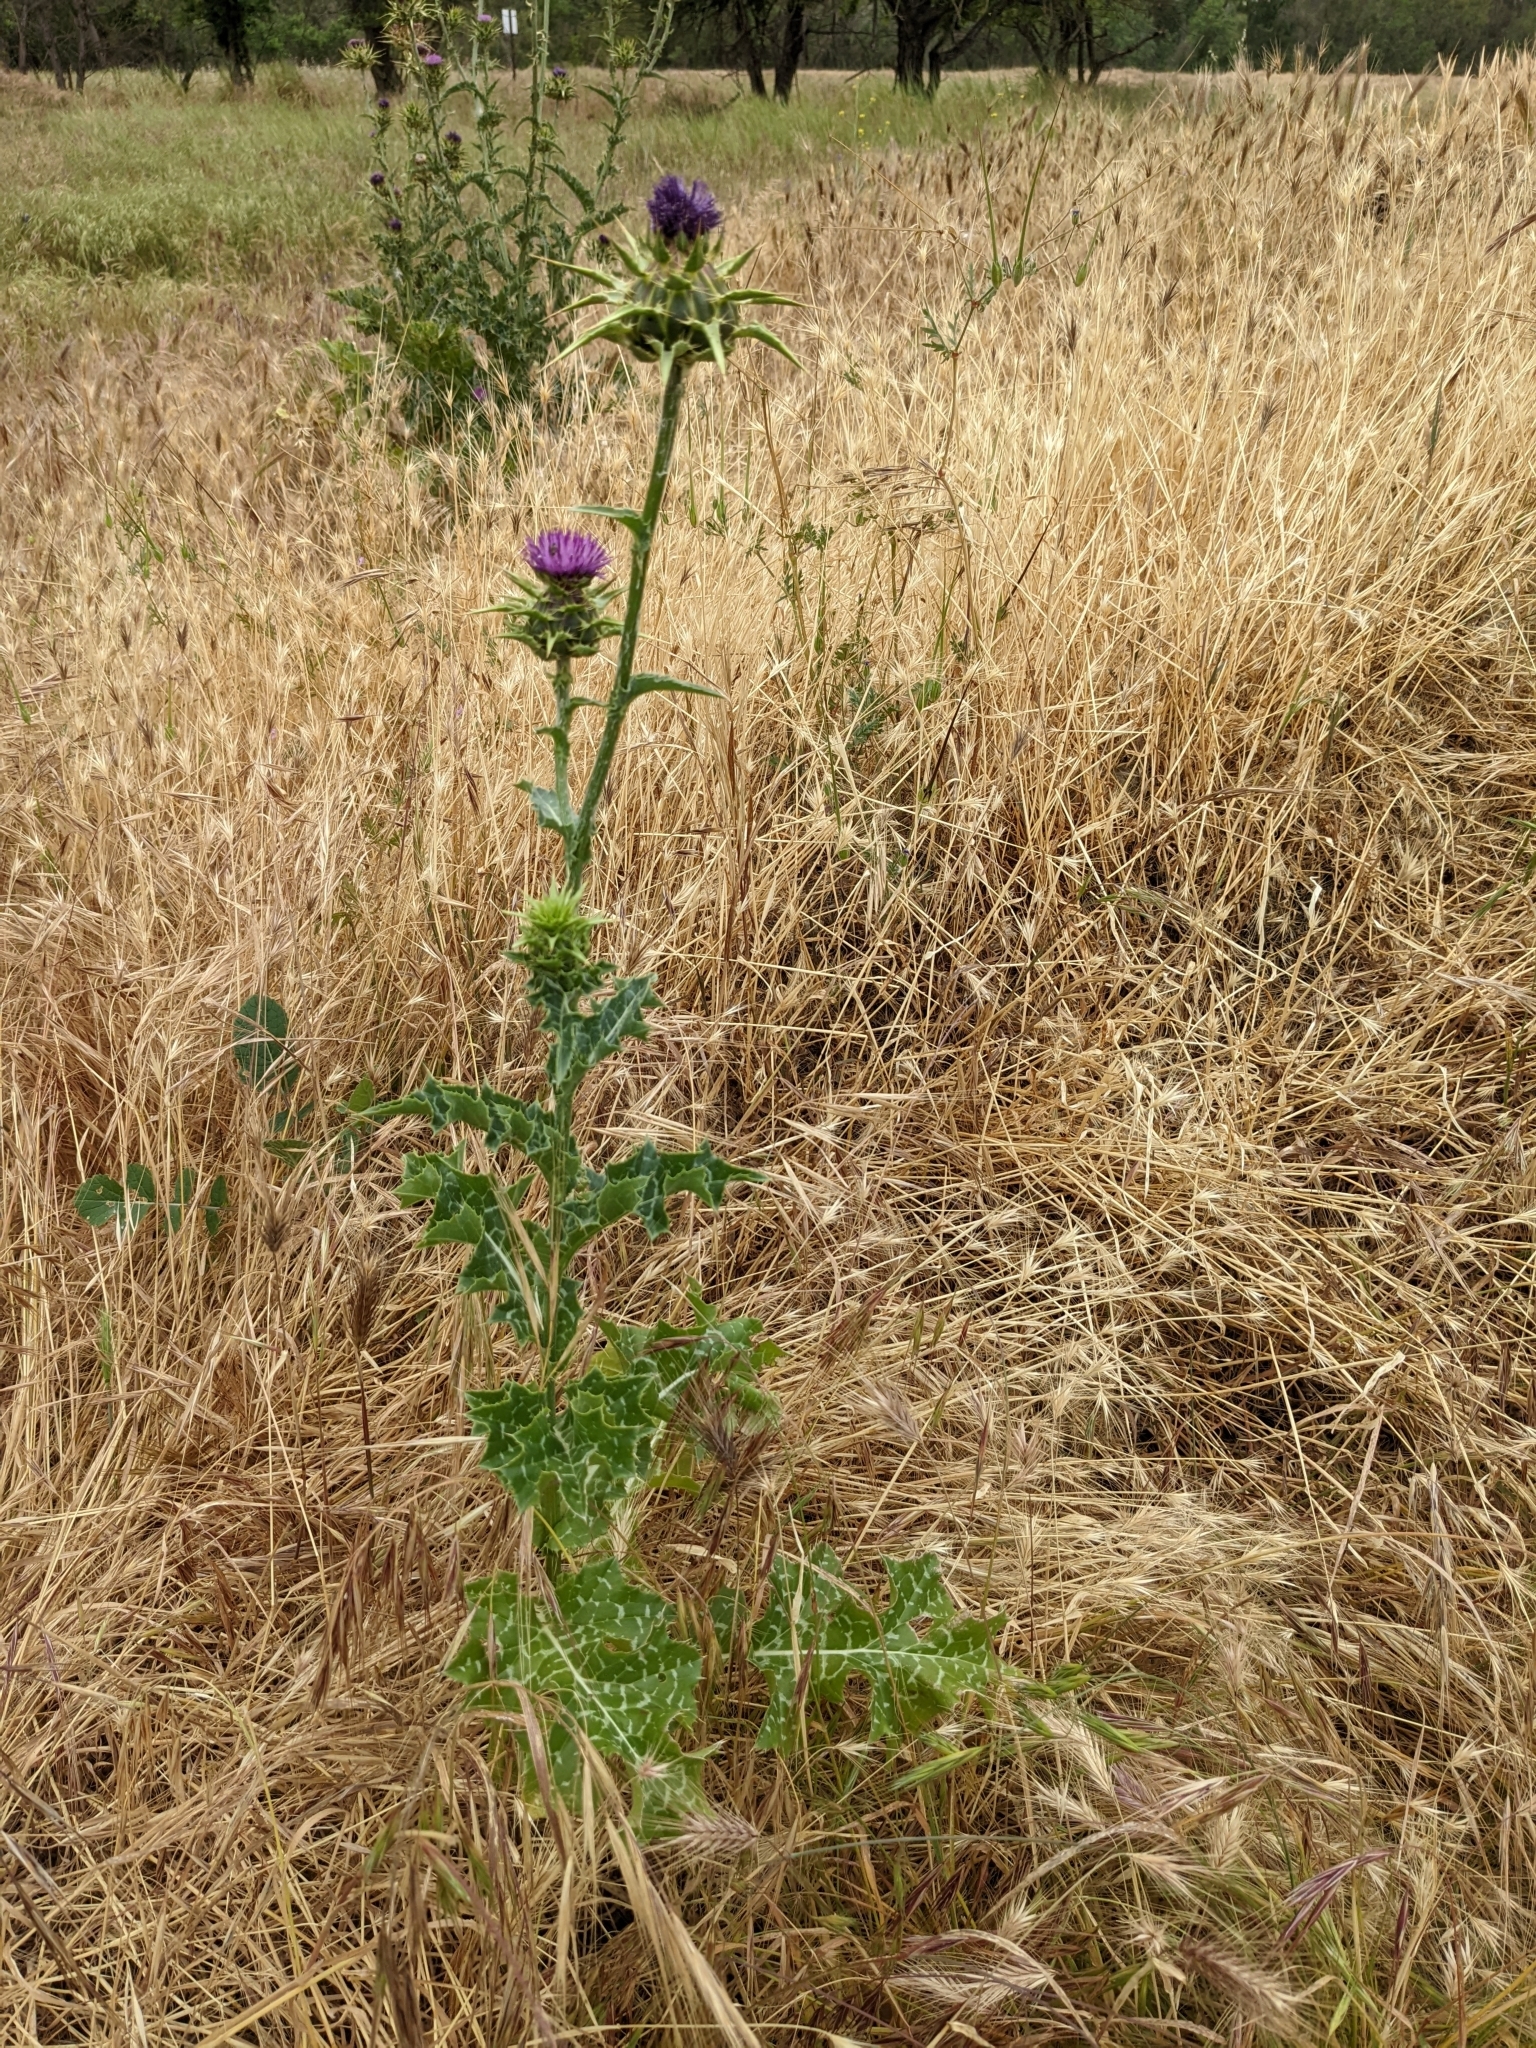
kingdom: Plantae
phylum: Tracheophyta
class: Magnoliopsida
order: Asterales
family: Asteraceae
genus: Silybum
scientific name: Silybum marianum
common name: Milk thistle
